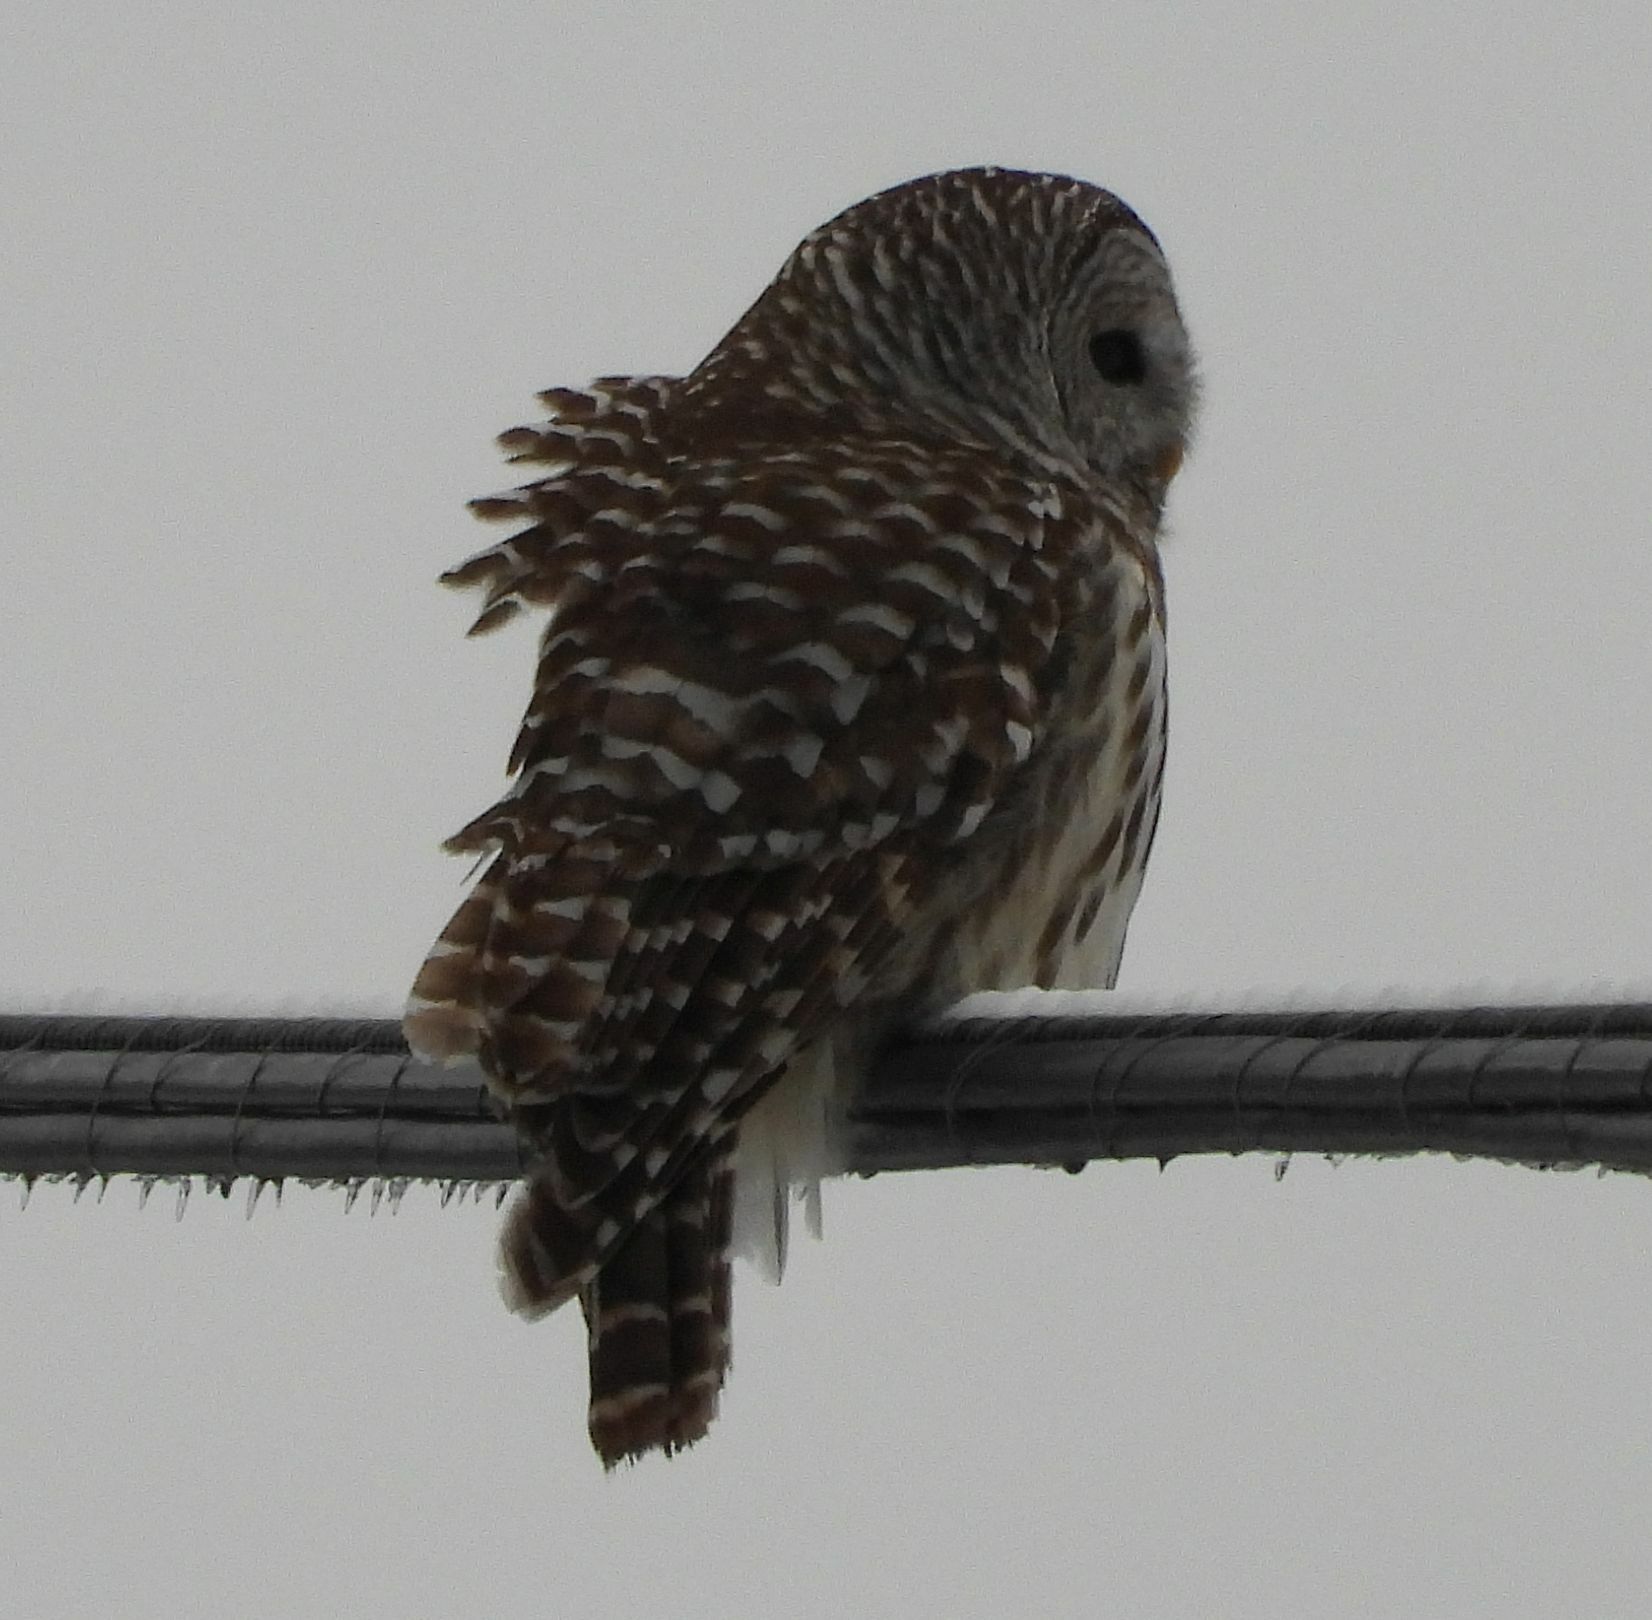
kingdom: Animalia
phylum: Chordata
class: Aves
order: Strigiformes
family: Strigidae
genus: Strix
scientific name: Strix varia
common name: Barred owl
